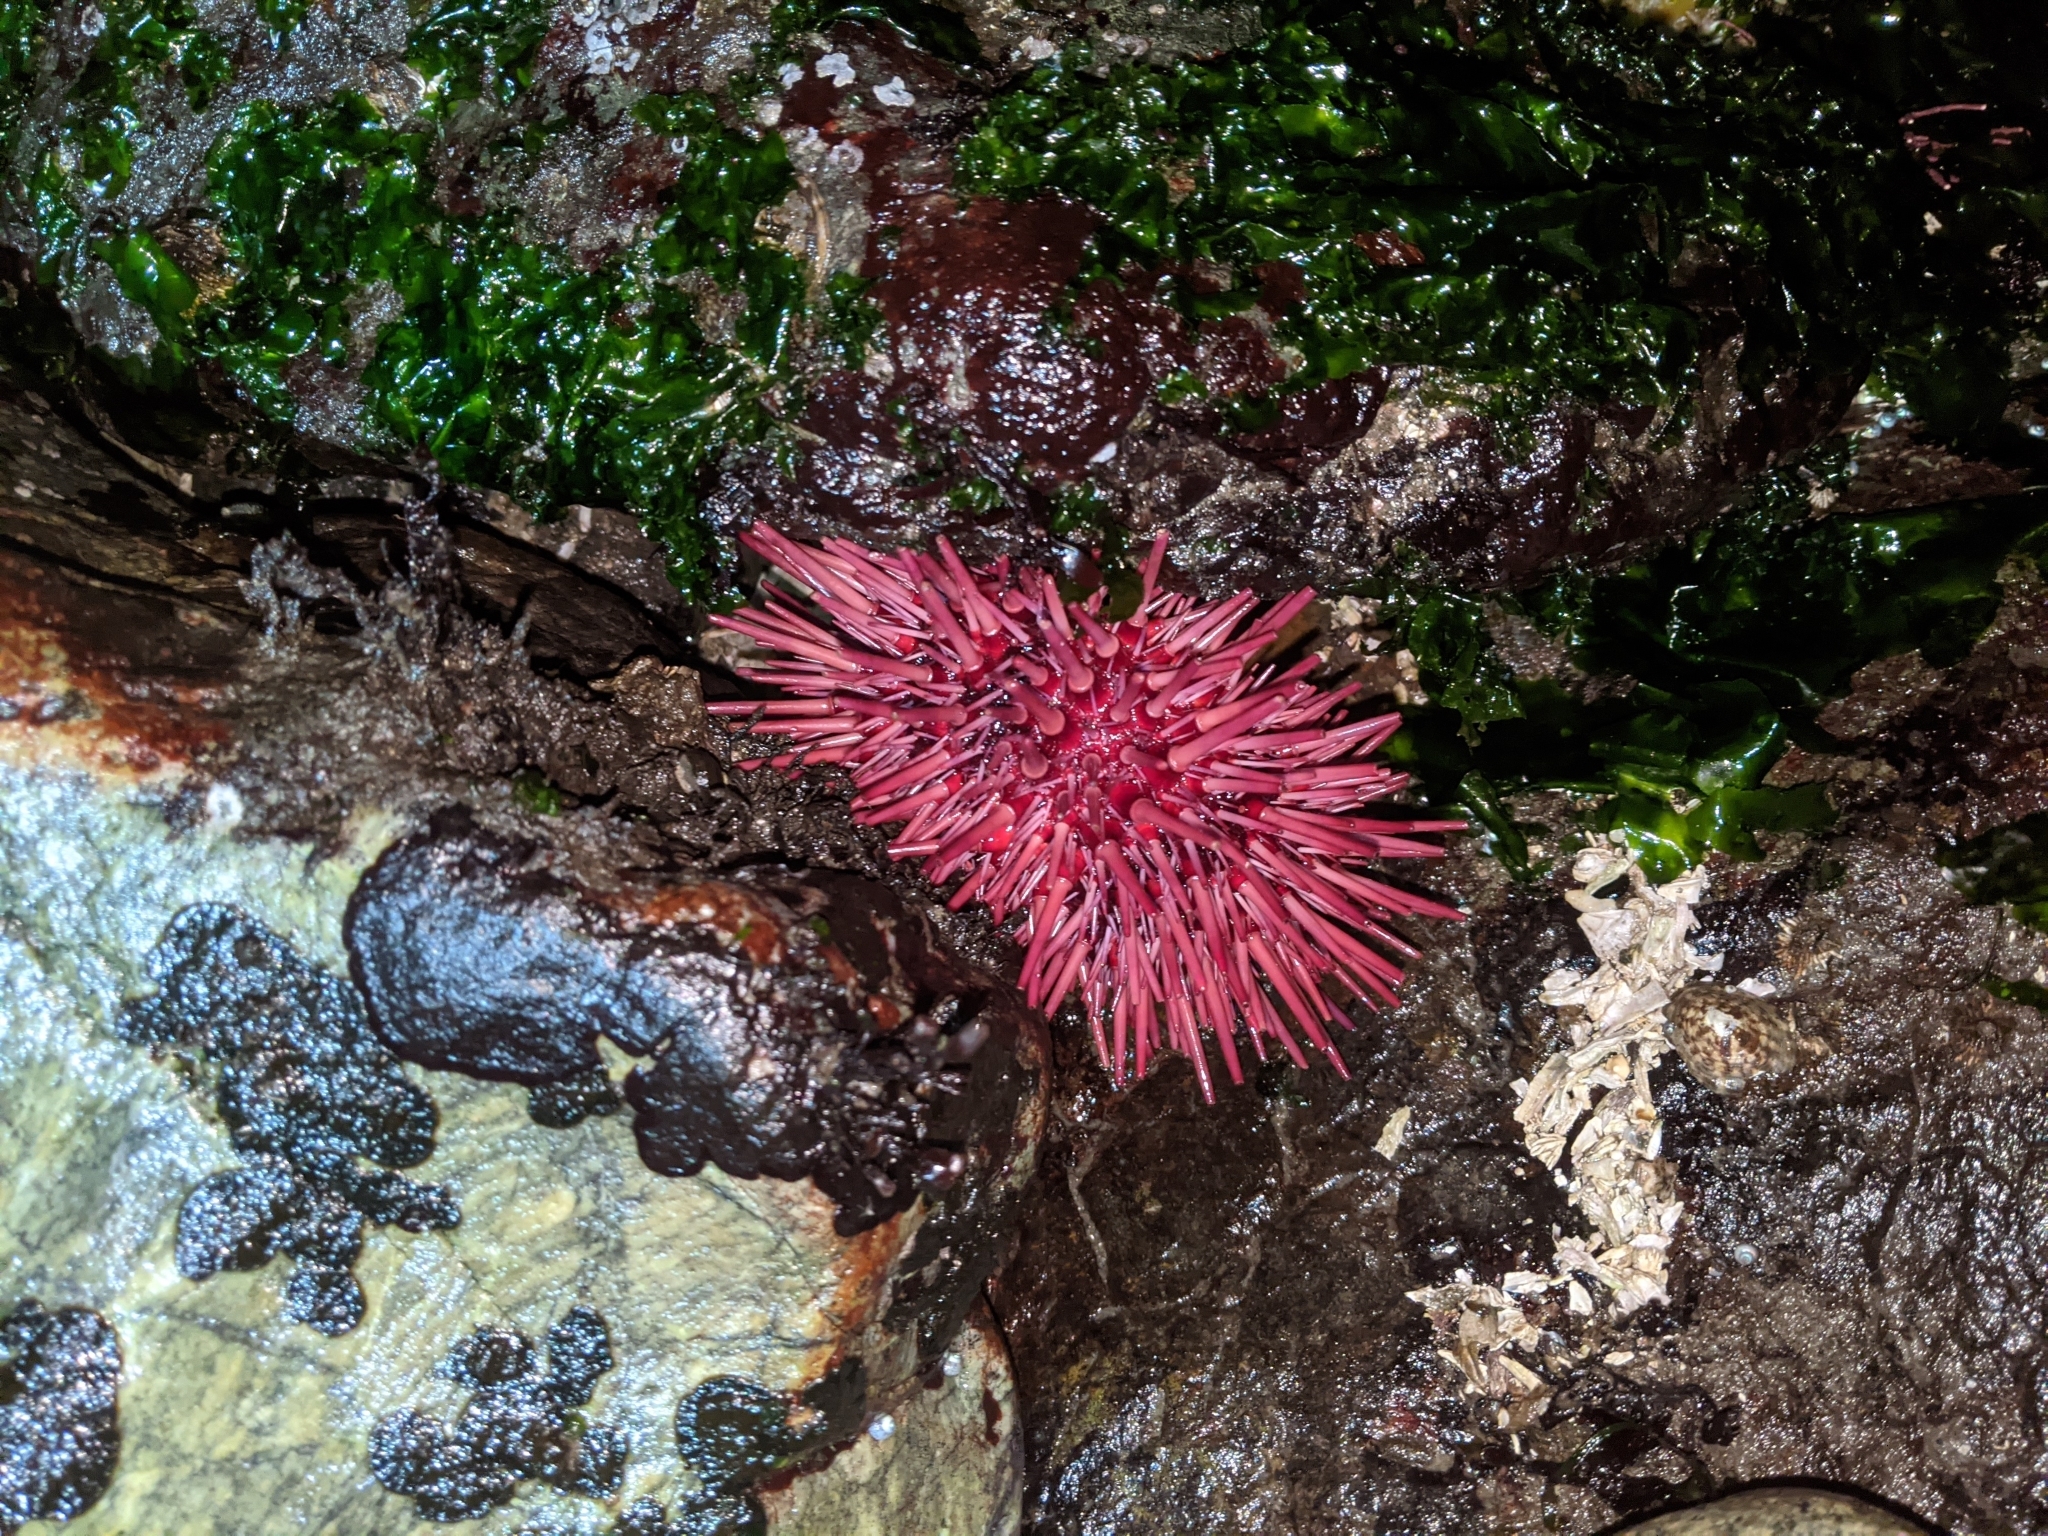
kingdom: Animalia
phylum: Echinodermata
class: Echinoidea
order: Camarodonta
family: Strongylocentrotidae
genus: Mesocentrotus
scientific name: Mesocentrotus franciscanus
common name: Red sea urchin
